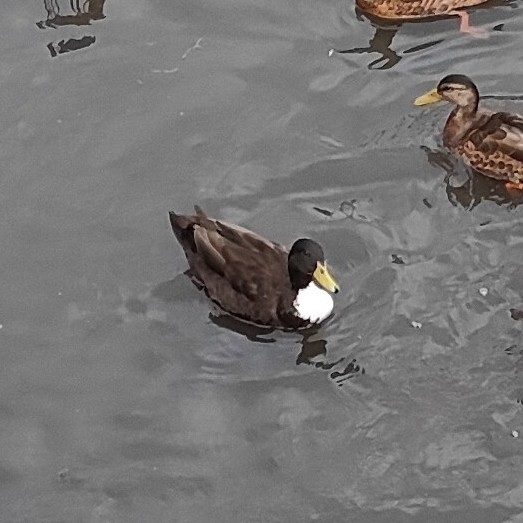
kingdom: Animalia
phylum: Chordata
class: Aves
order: Anseriformes
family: Anatidae
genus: Anas
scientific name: Anas platyrhynchos
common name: Mallard
